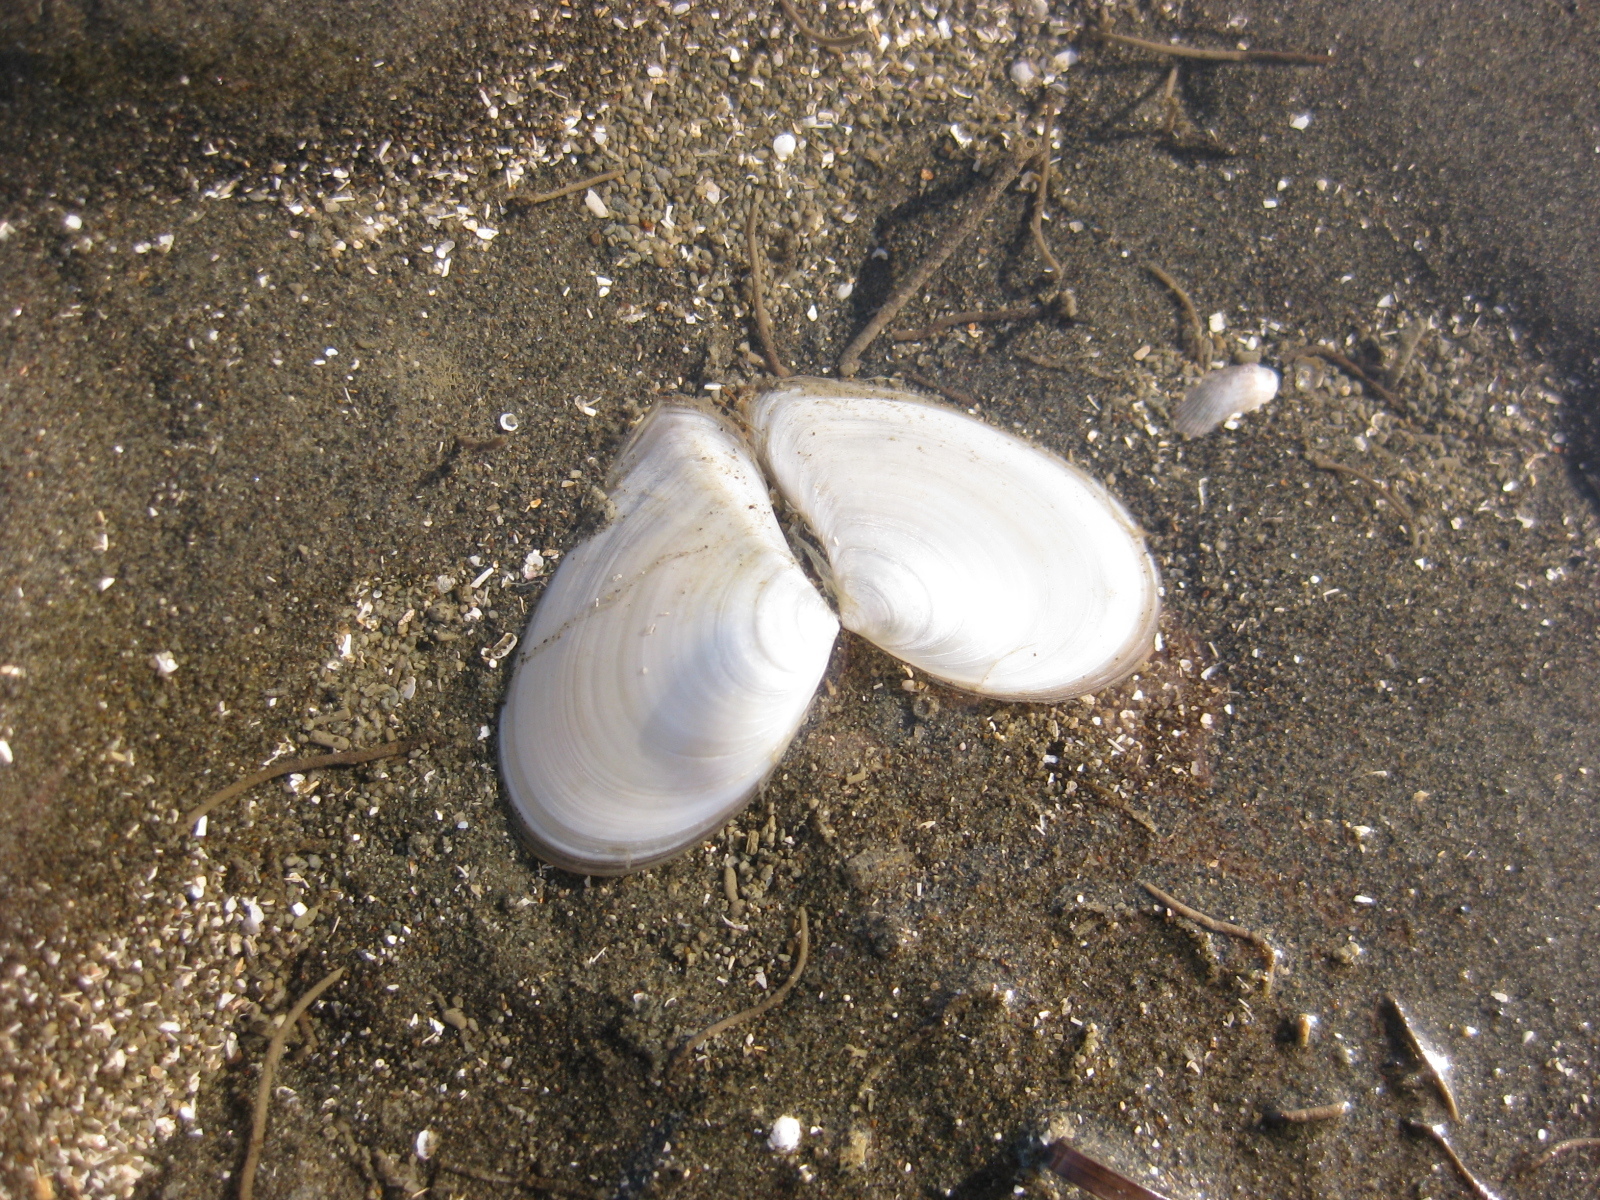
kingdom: Animalia
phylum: Mollusca
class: Bivalvia
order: Cardiida
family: Tellinidae
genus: Macomona
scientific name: Macomona liliana
